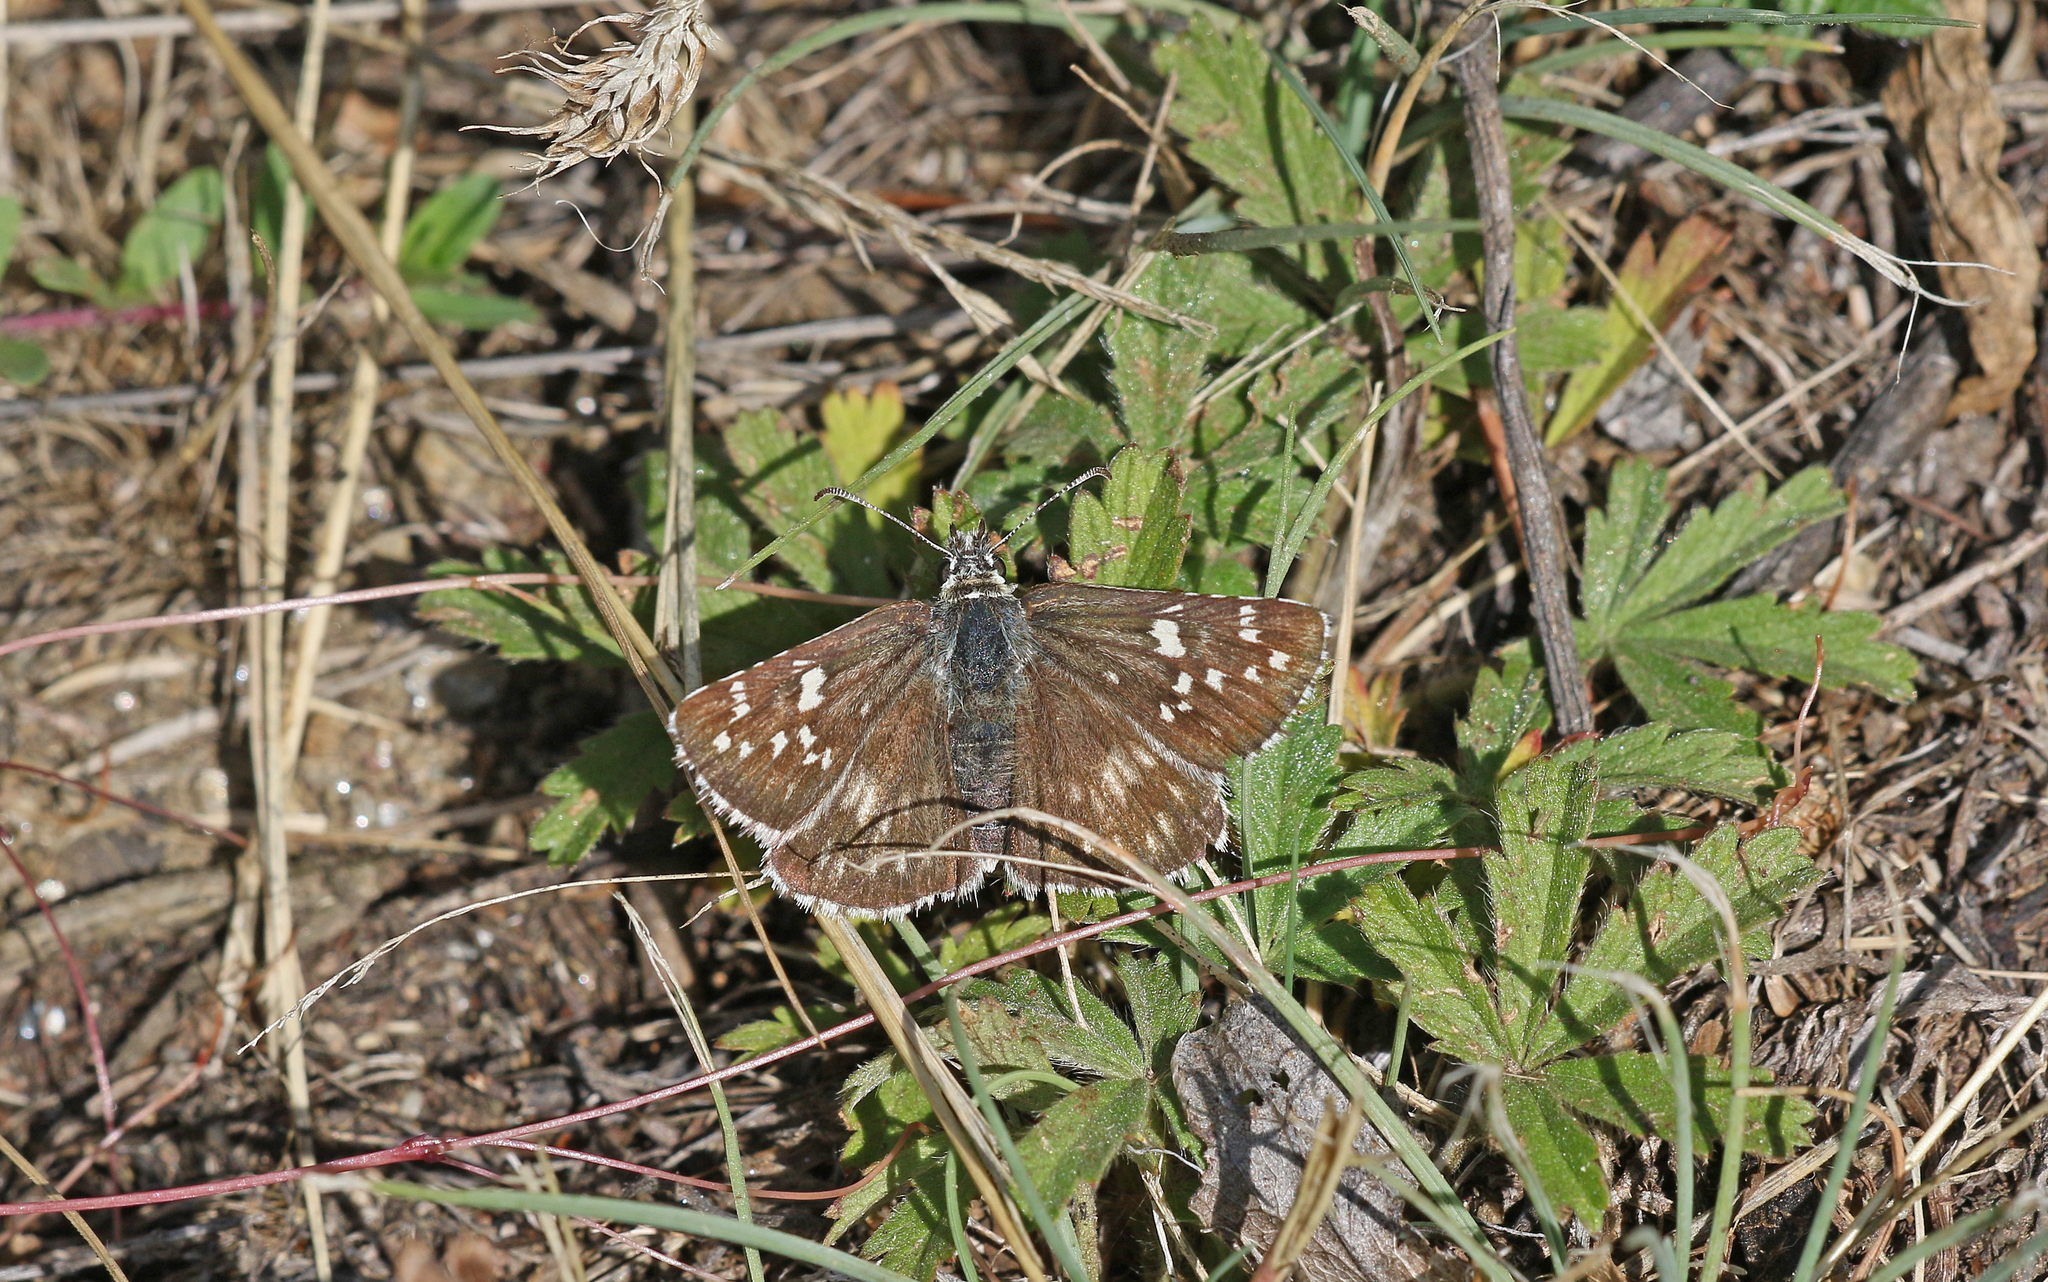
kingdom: Animalia
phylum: Arthropoda
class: Insecta
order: Lepidoptera
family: Hesperiidae
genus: Pyrgus
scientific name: Pyrgus fritillarius
